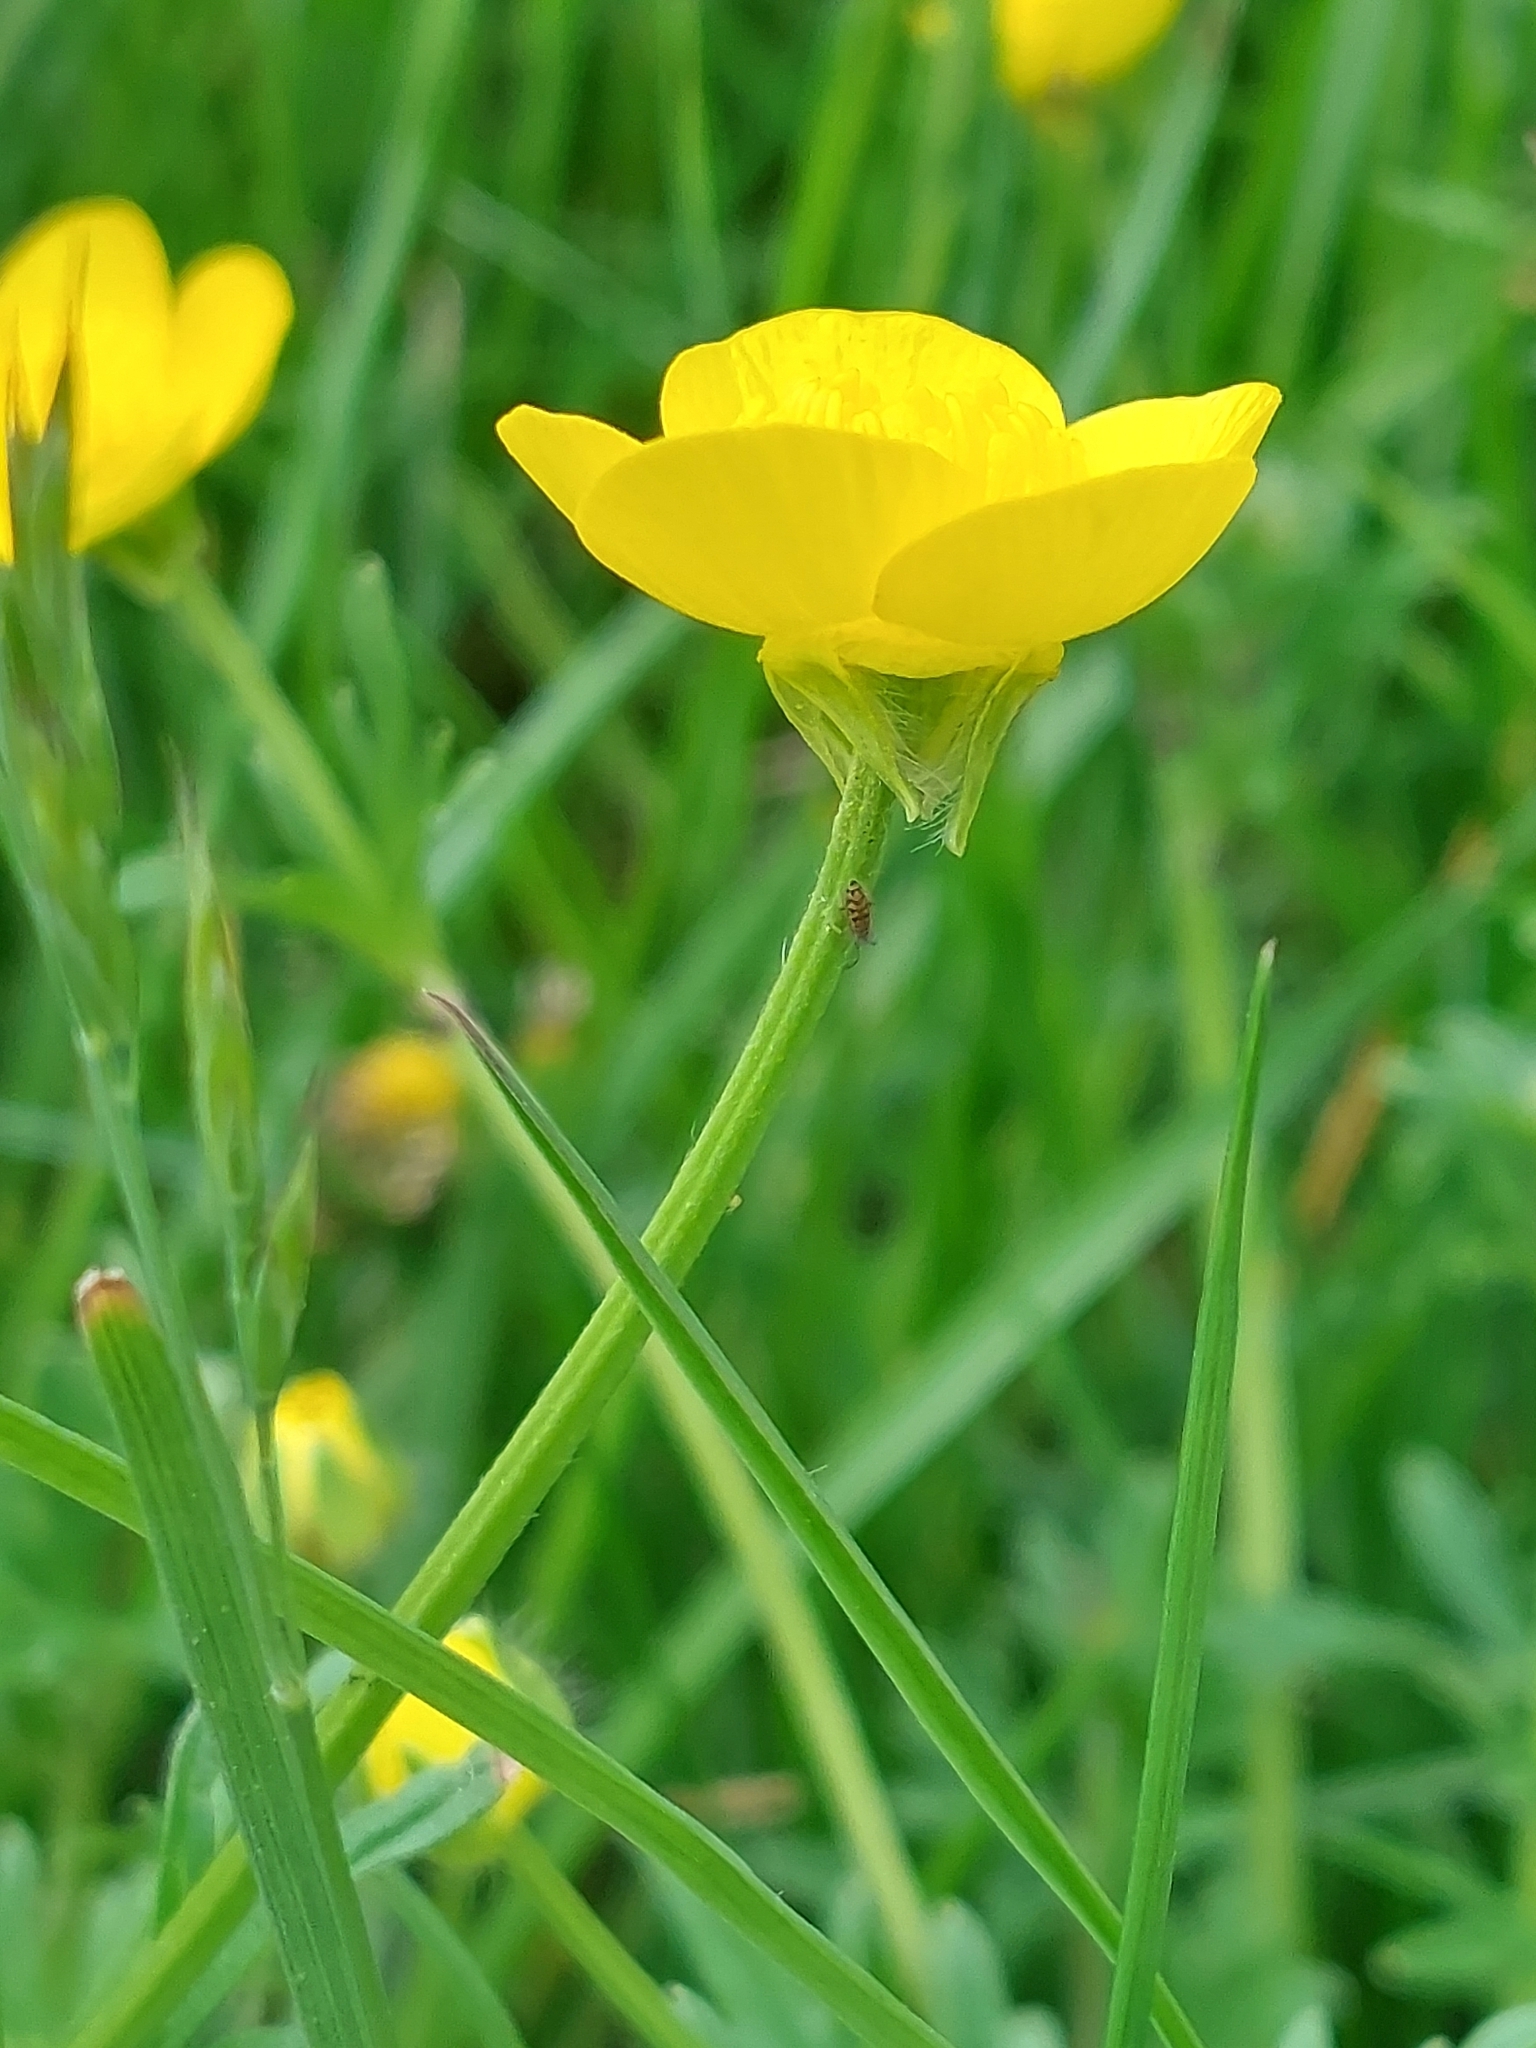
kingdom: Plantae
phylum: Tracheophyta
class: Magnoliopsida
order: Ranunculales
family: Ranunculaceae
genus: Ranunculus
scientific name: Ranunculus bulbosus
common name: Bulbous buttercup
